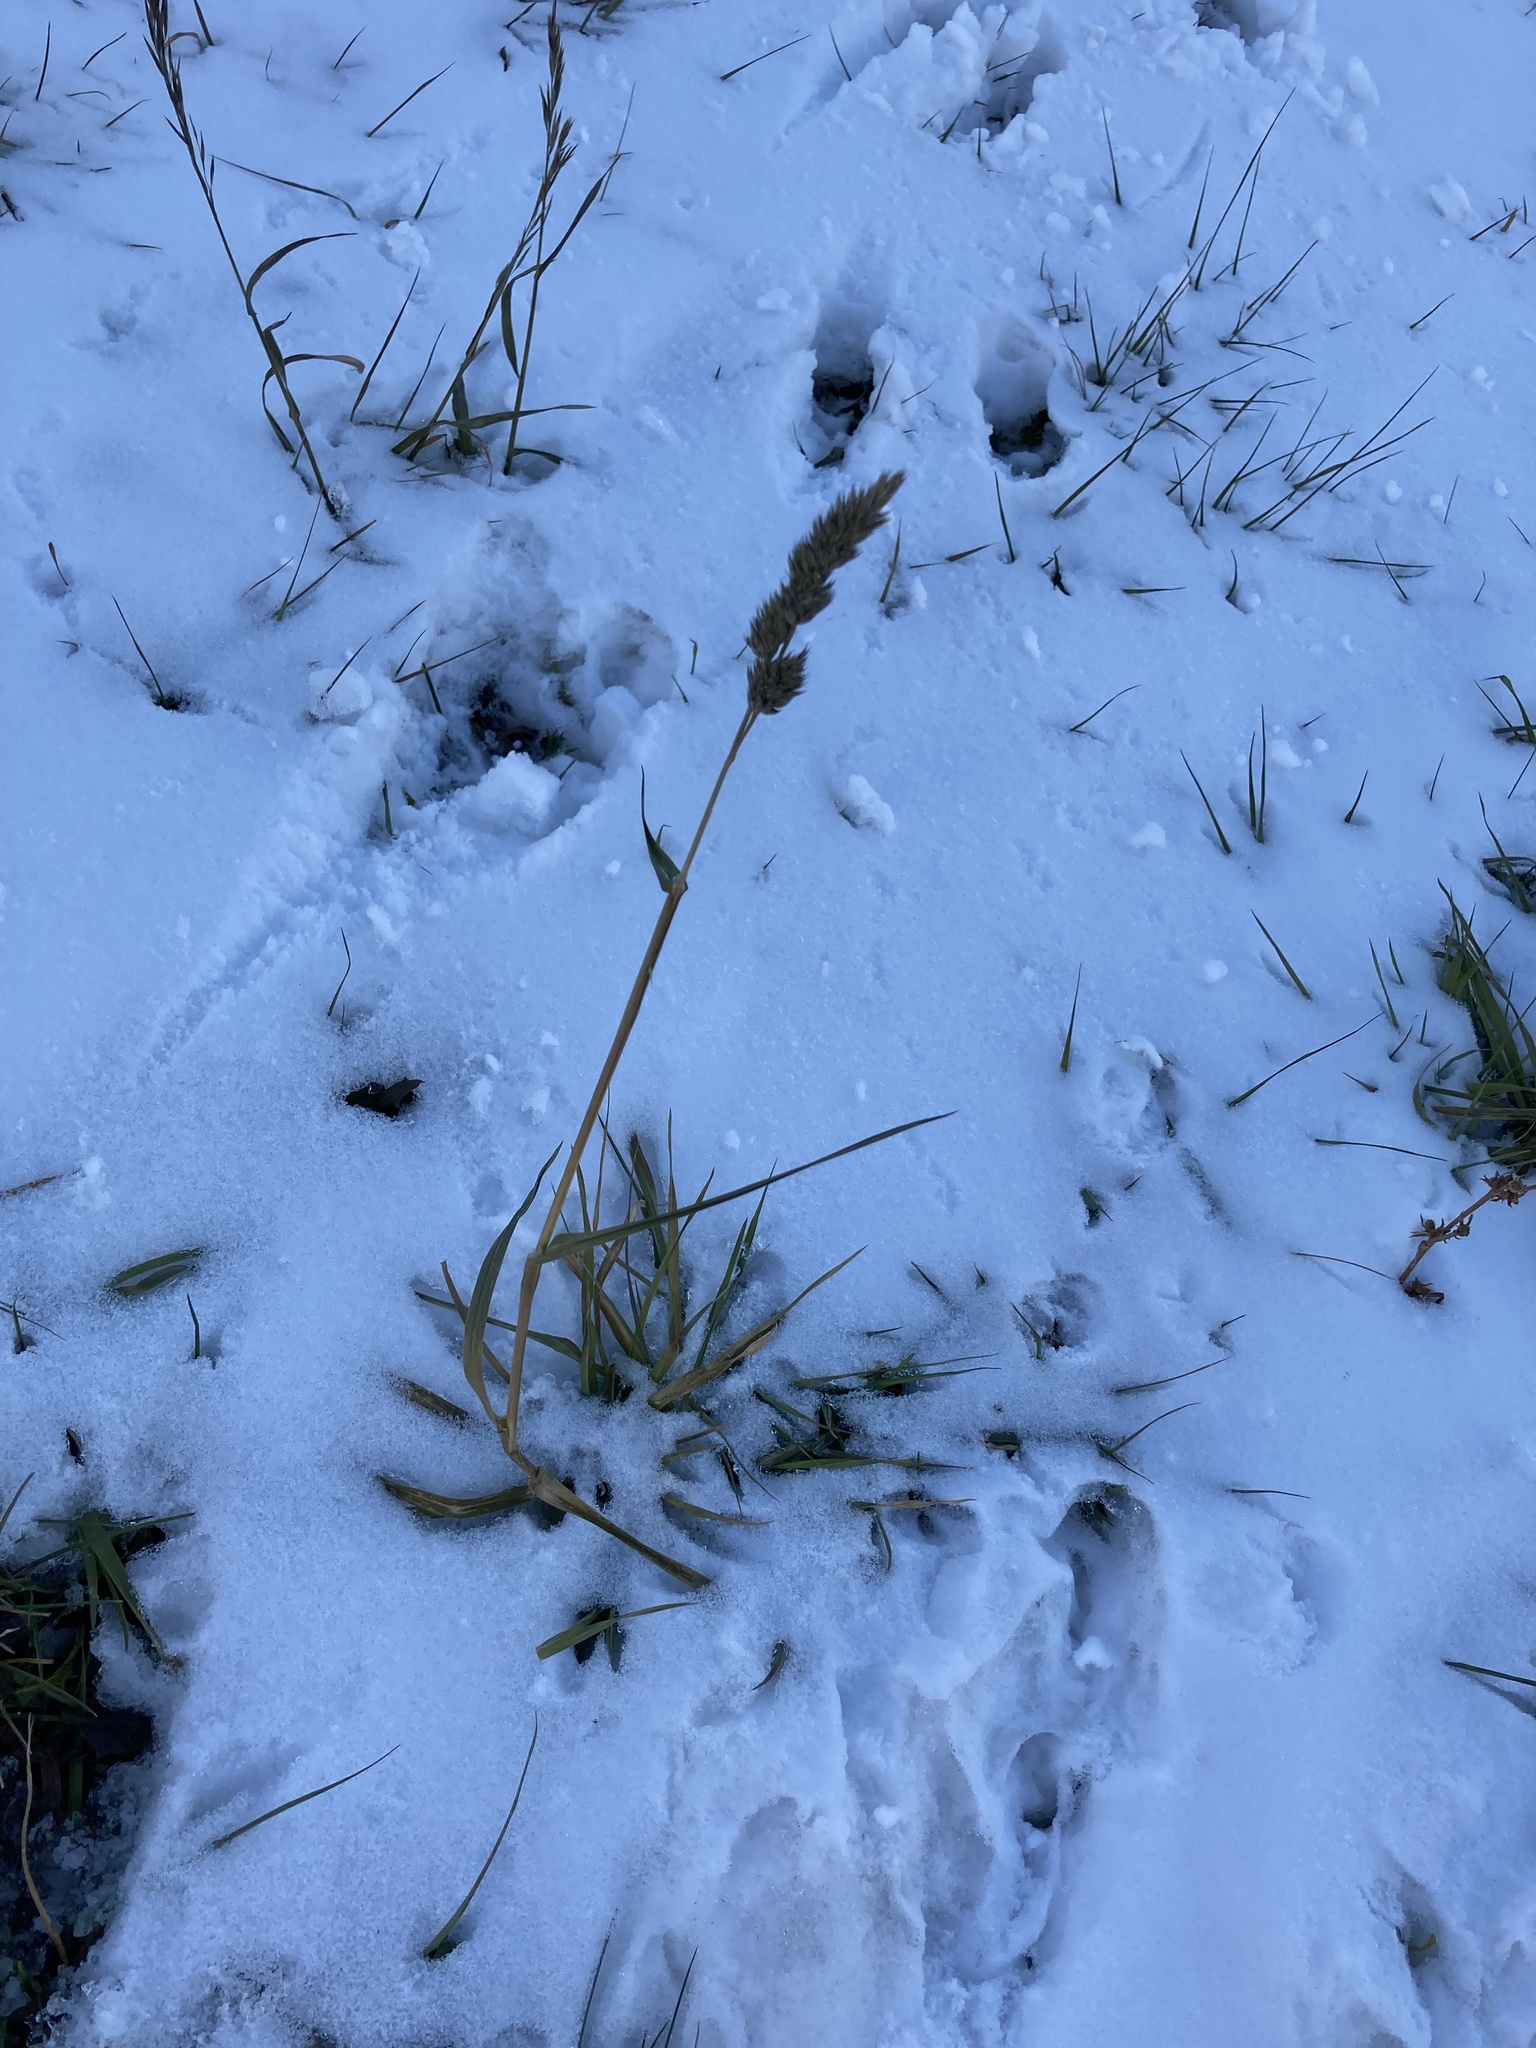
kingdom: Plantae
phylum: Tracheophyta
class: Liliopsida
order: Poales
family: Poaceae
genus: Dactylis
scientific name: Dactylis glomerata
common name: Orchardgrass
